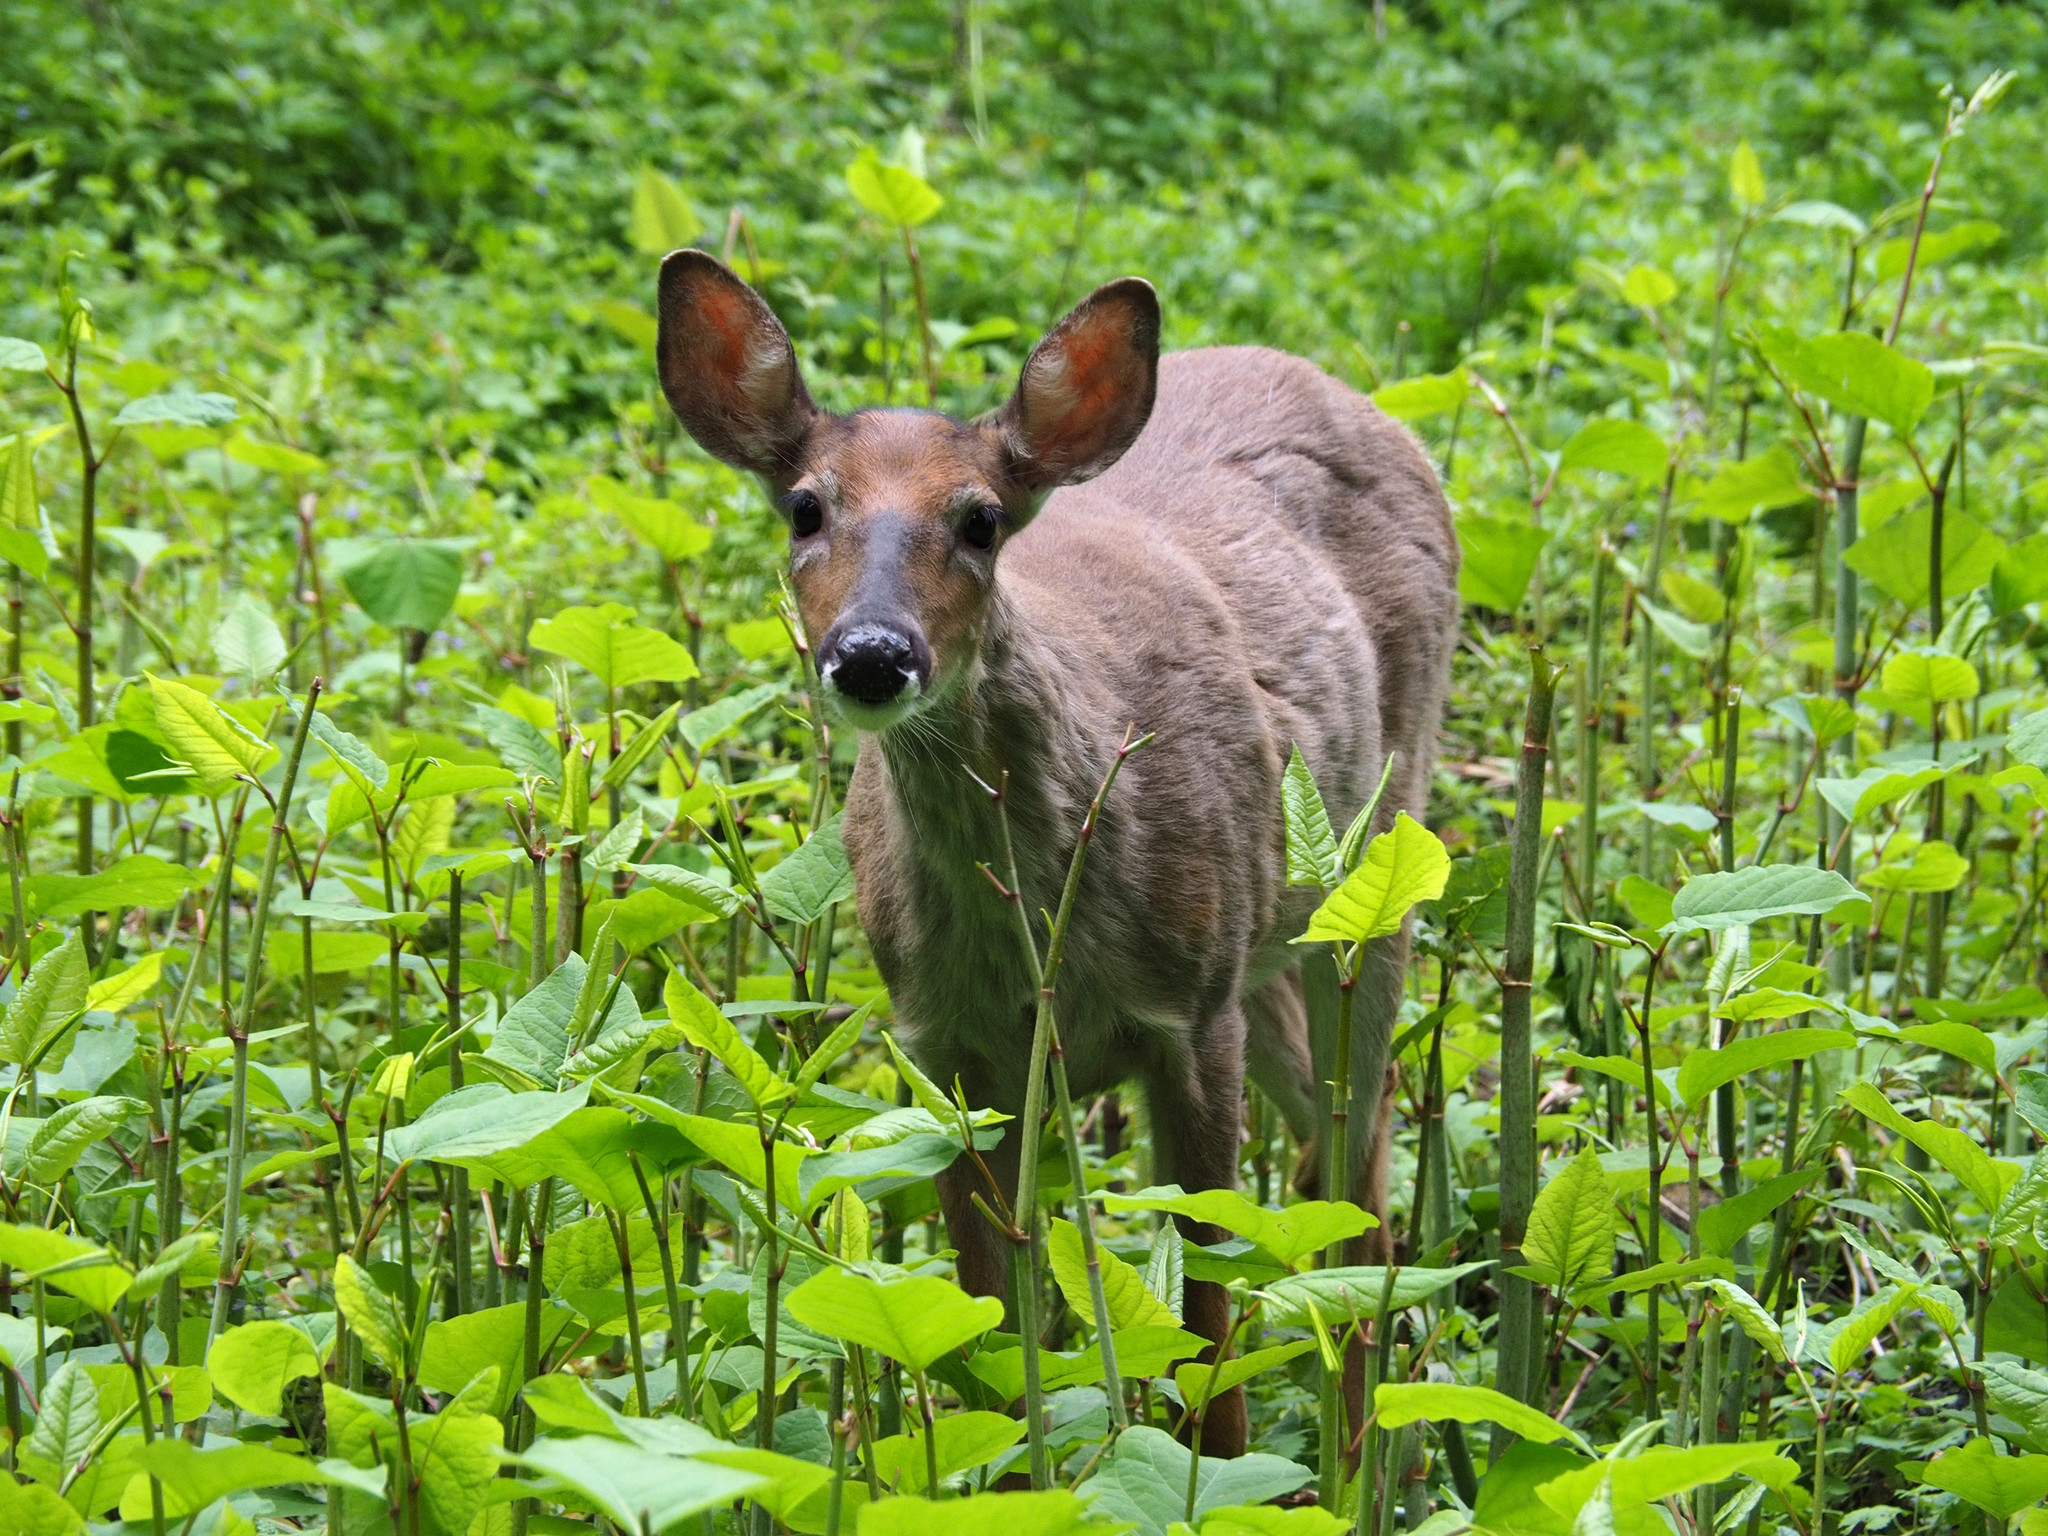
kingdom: Animalia
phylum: Chordata
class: Mammalia
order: Artiodactyla
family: Cervidae
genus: Odocoileus
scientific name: Odocoileus virginianus
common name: White-tailed deer
